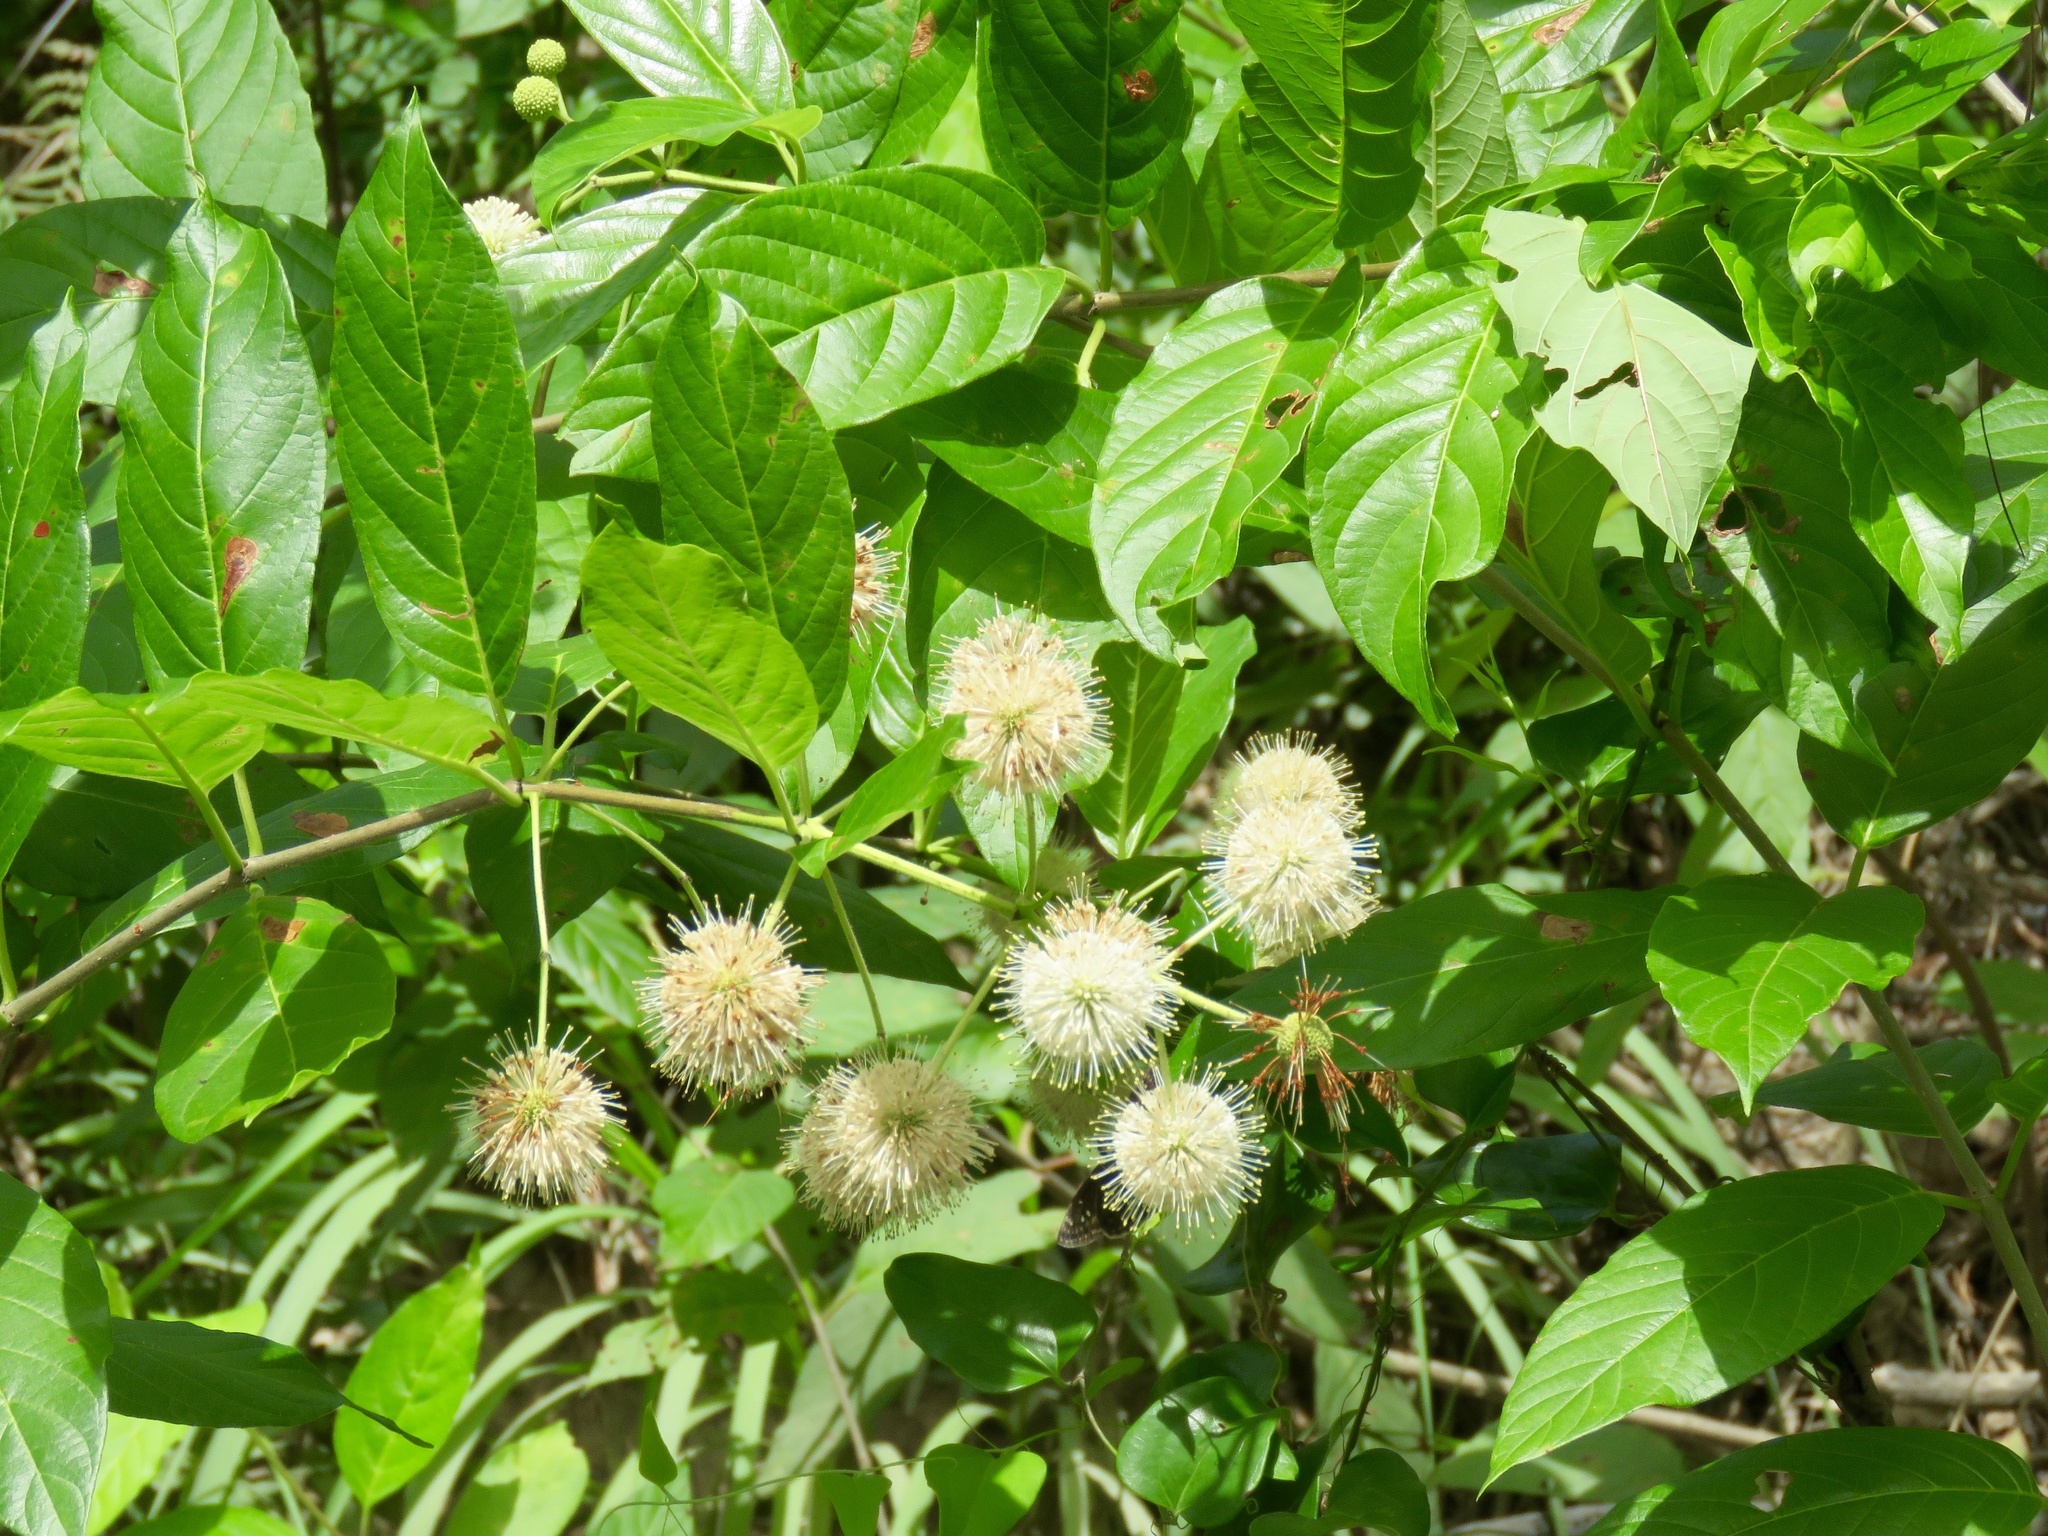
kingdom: Plantae
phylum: Tracheophyta
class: Magnoliopsida
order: Gentianales
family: Rubiaceae
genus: Cephalanthus
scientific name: Cephalanthus occidentalis
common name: Button-willow
